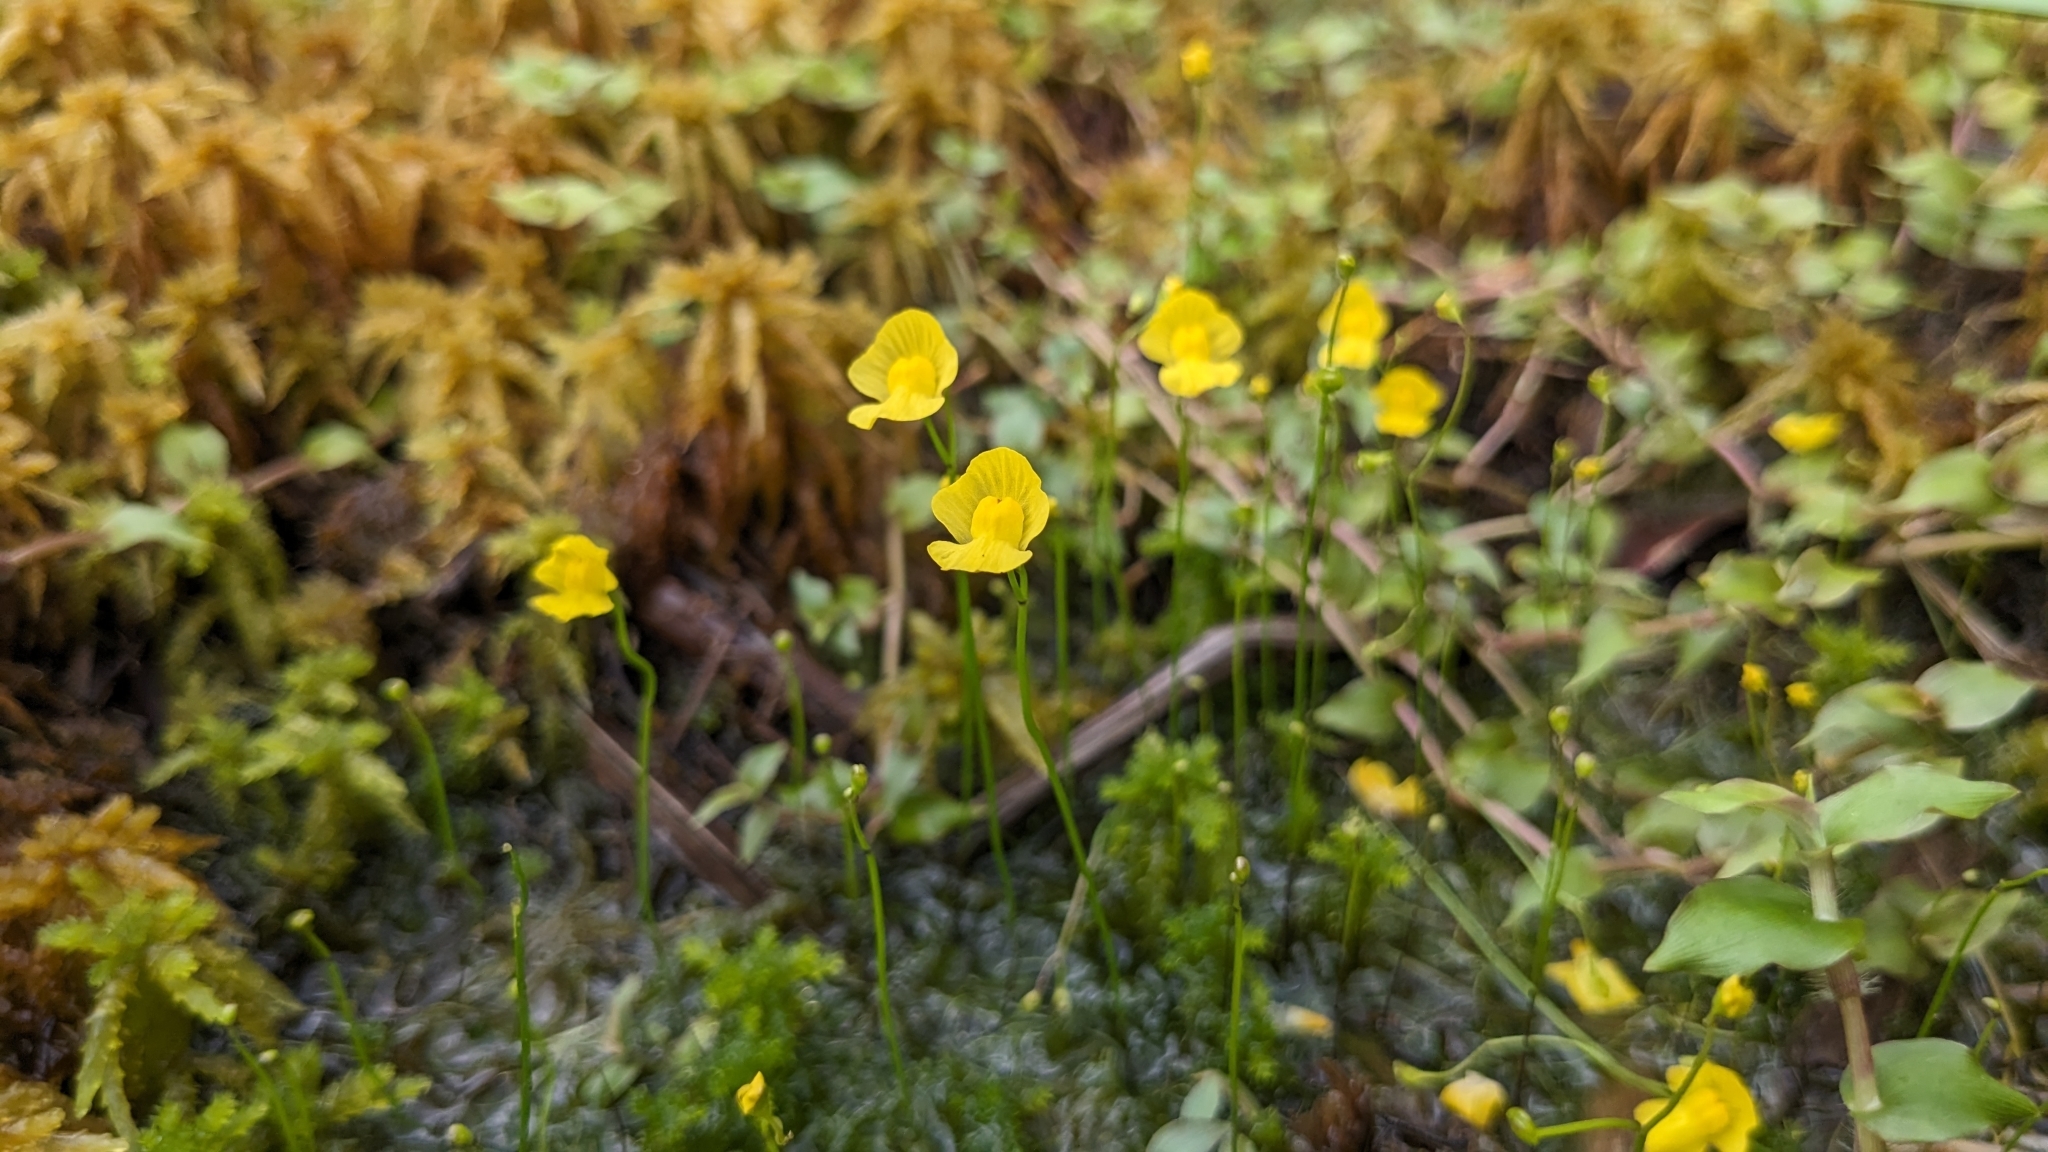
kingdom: Plantae
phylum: Tracheophyta
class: Magnoliopsida
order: Lamiales
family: Lentibulariaceae
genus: Utricularia
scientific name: Utricularia gibba
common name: Humped bladderwort
